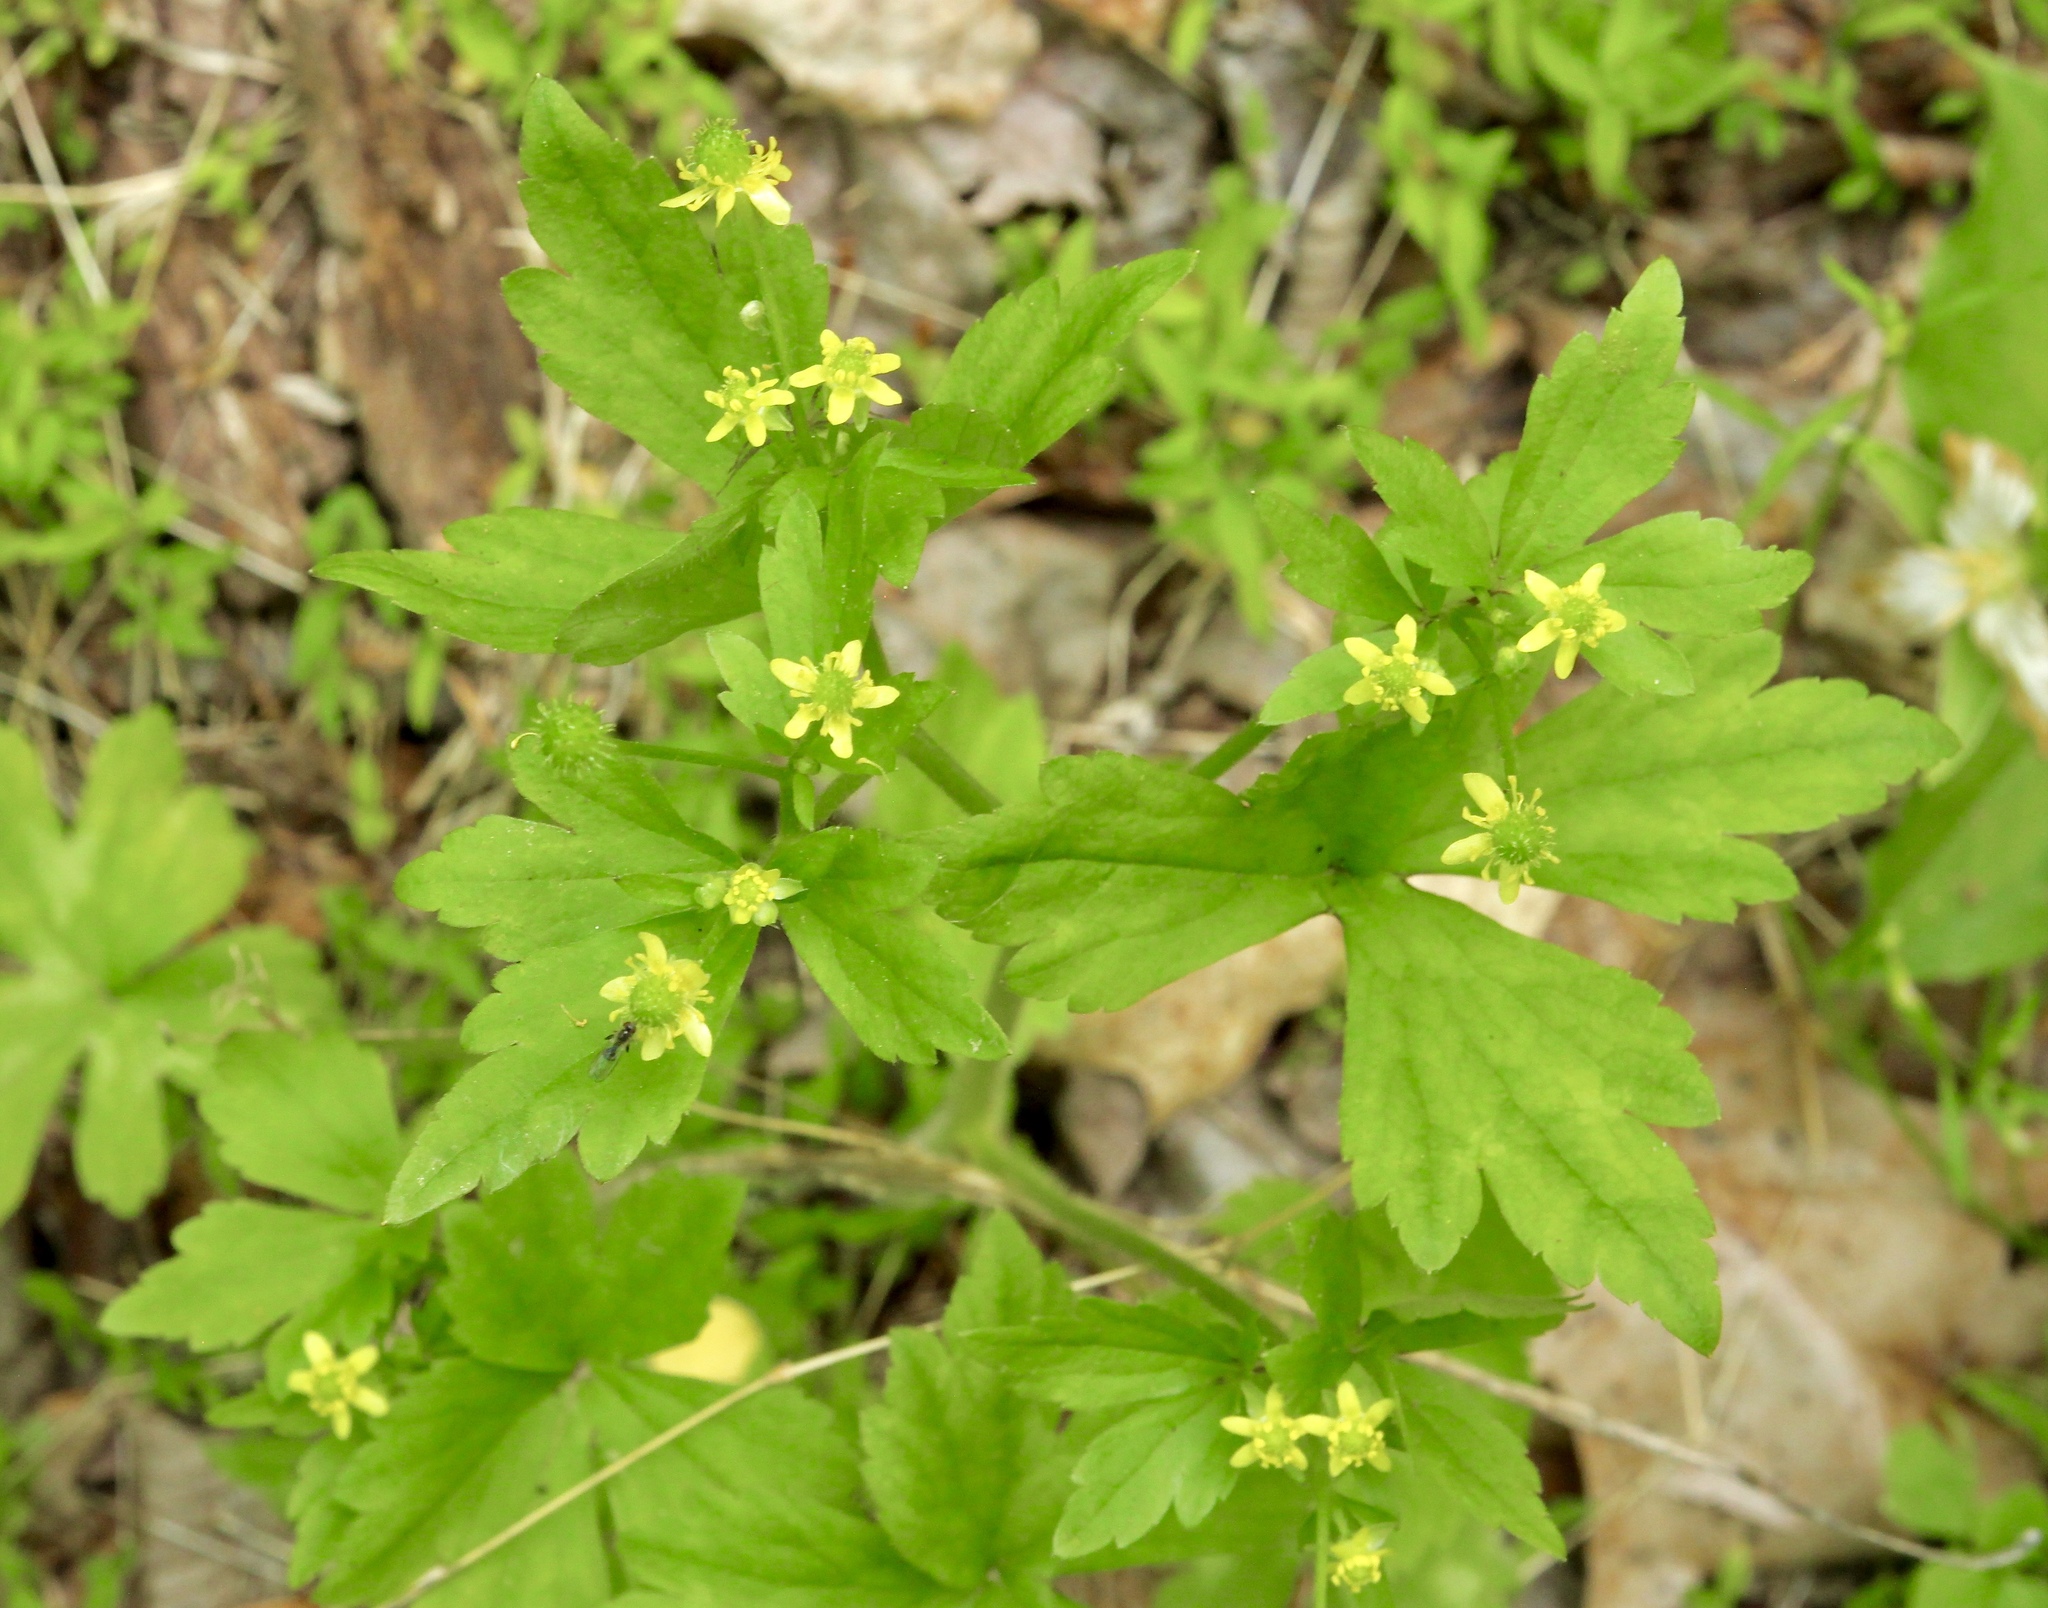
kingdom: Plantae
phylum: Tracheophyta
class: Magnoliopsida
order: Ranunculales
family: Ranunculaceae
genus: Ranunculus
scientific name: Ranunculus recurvatus
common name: Blisterwort
